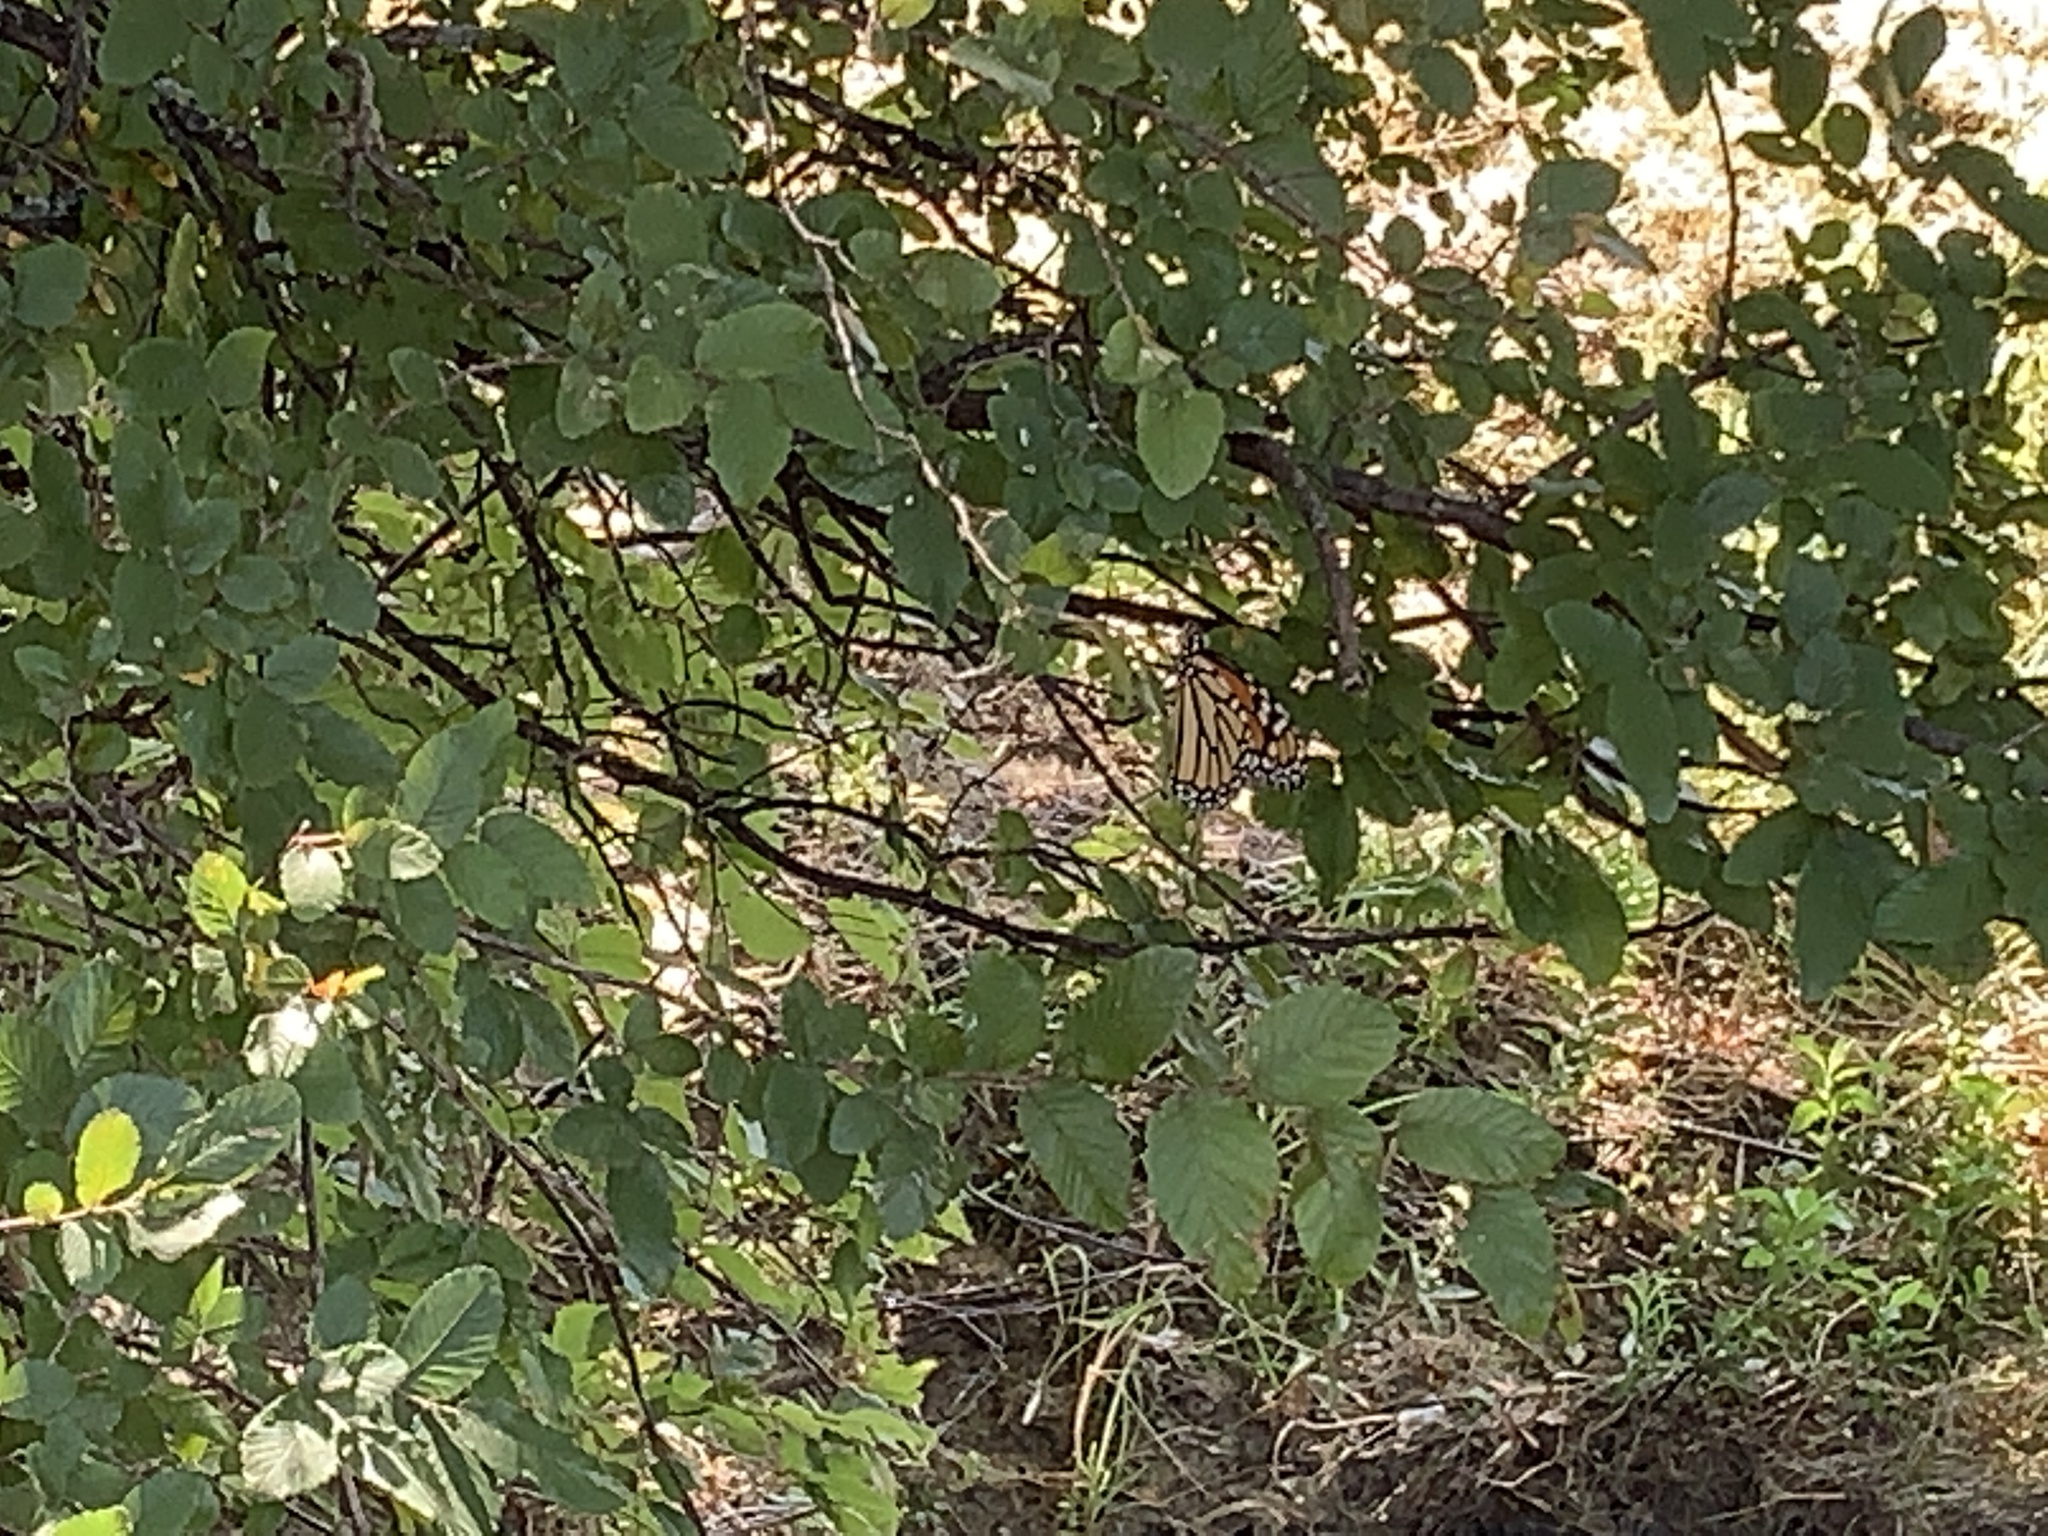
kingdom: Animalia
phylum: Arthropoda
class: Insecta
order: Lepidoptera
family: Nymphalidae
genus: Danaus
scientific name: Danaus plexippus
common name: Monarch
